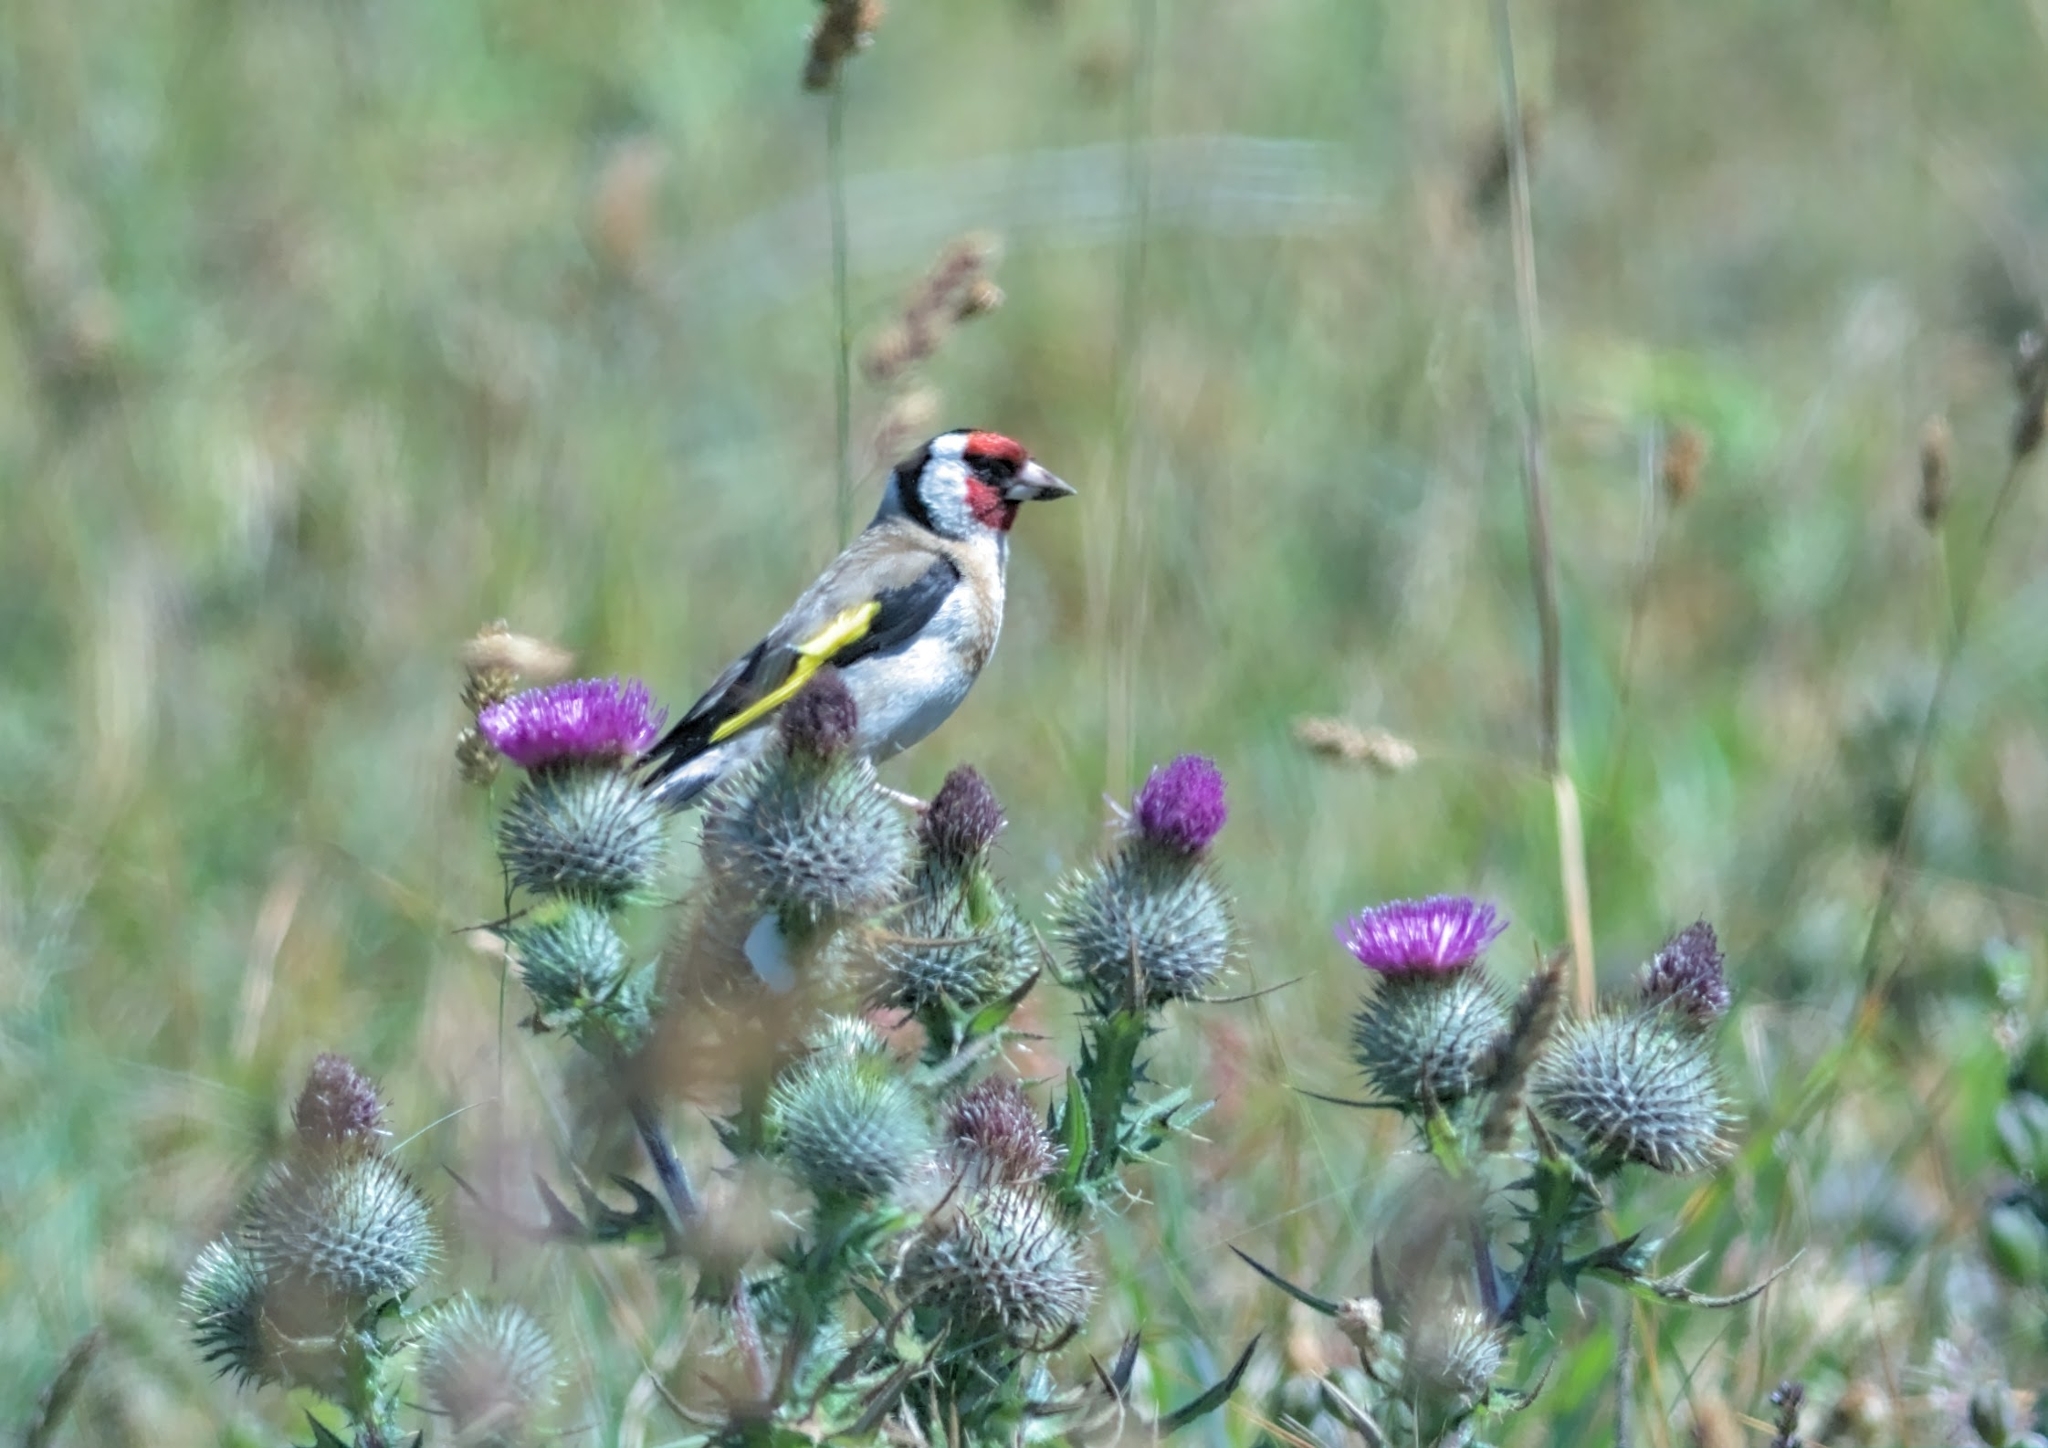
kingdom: Animalia
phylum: Chordata
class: Aves
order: Passeriformes
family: Fringillidae
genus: Carduelis
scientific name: Carduelis carduelis
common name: European goldfinch
